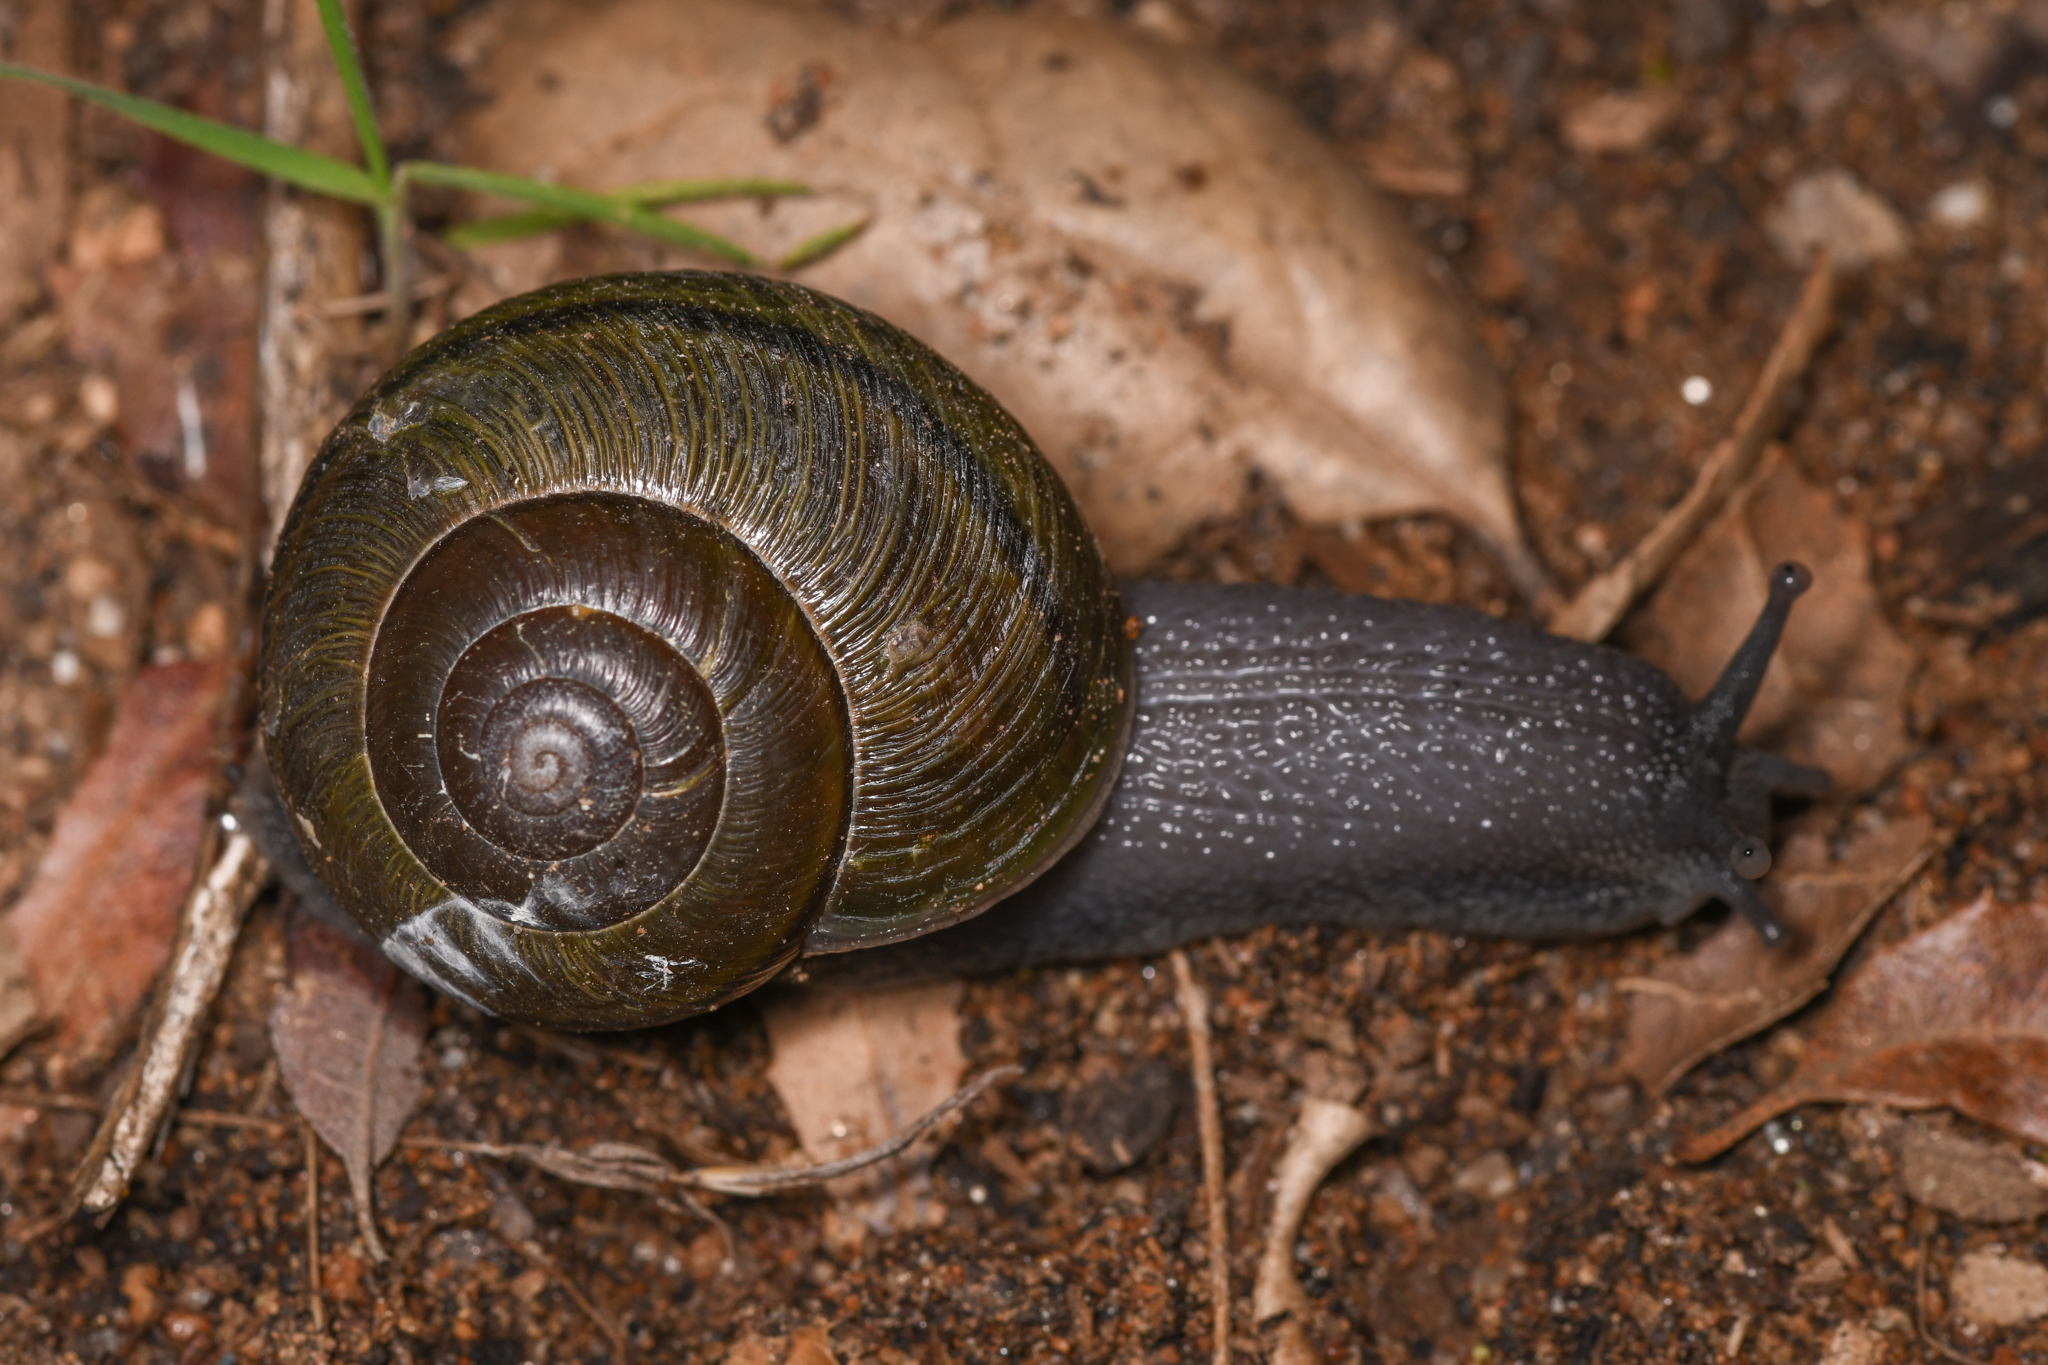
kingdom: Animalia
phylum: Mollusca
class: Gastropoda
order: Stylommatophora
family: Xanthonychidae
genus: Helminthoglypta
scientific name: Helminthoglypta tudiculata
